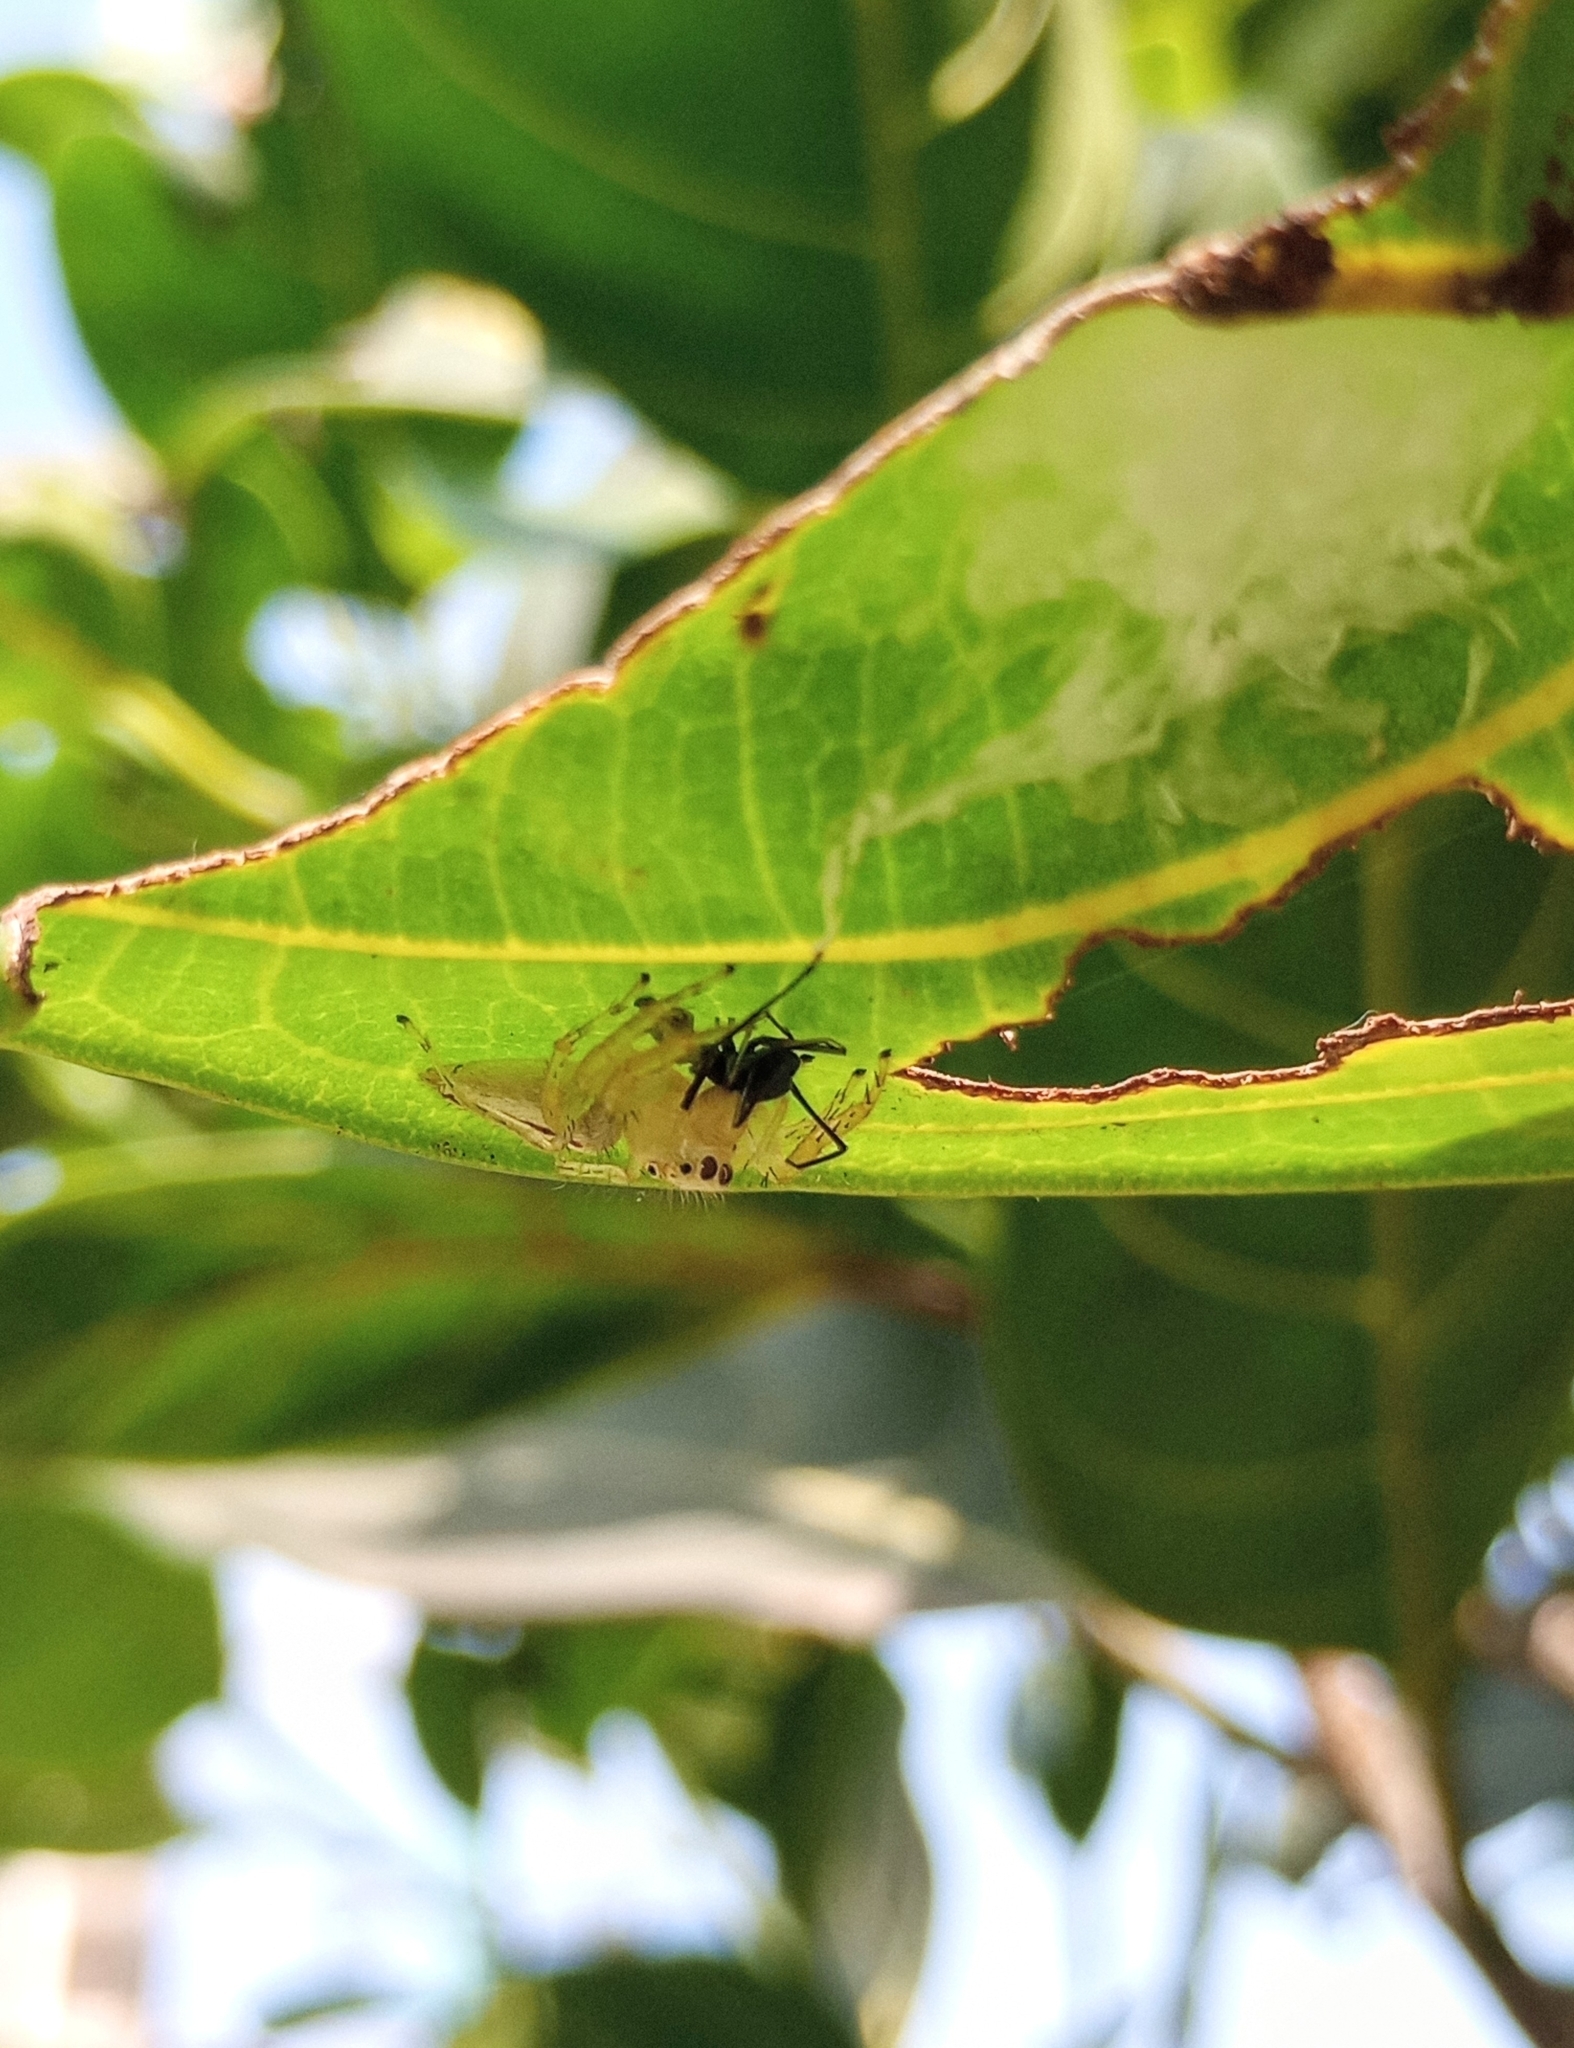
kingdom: Animalia
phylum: Arthropoda
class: Arachnida
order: Araneae
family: Salticidae
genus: Telamonia
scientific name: Telamonia dimidiata
